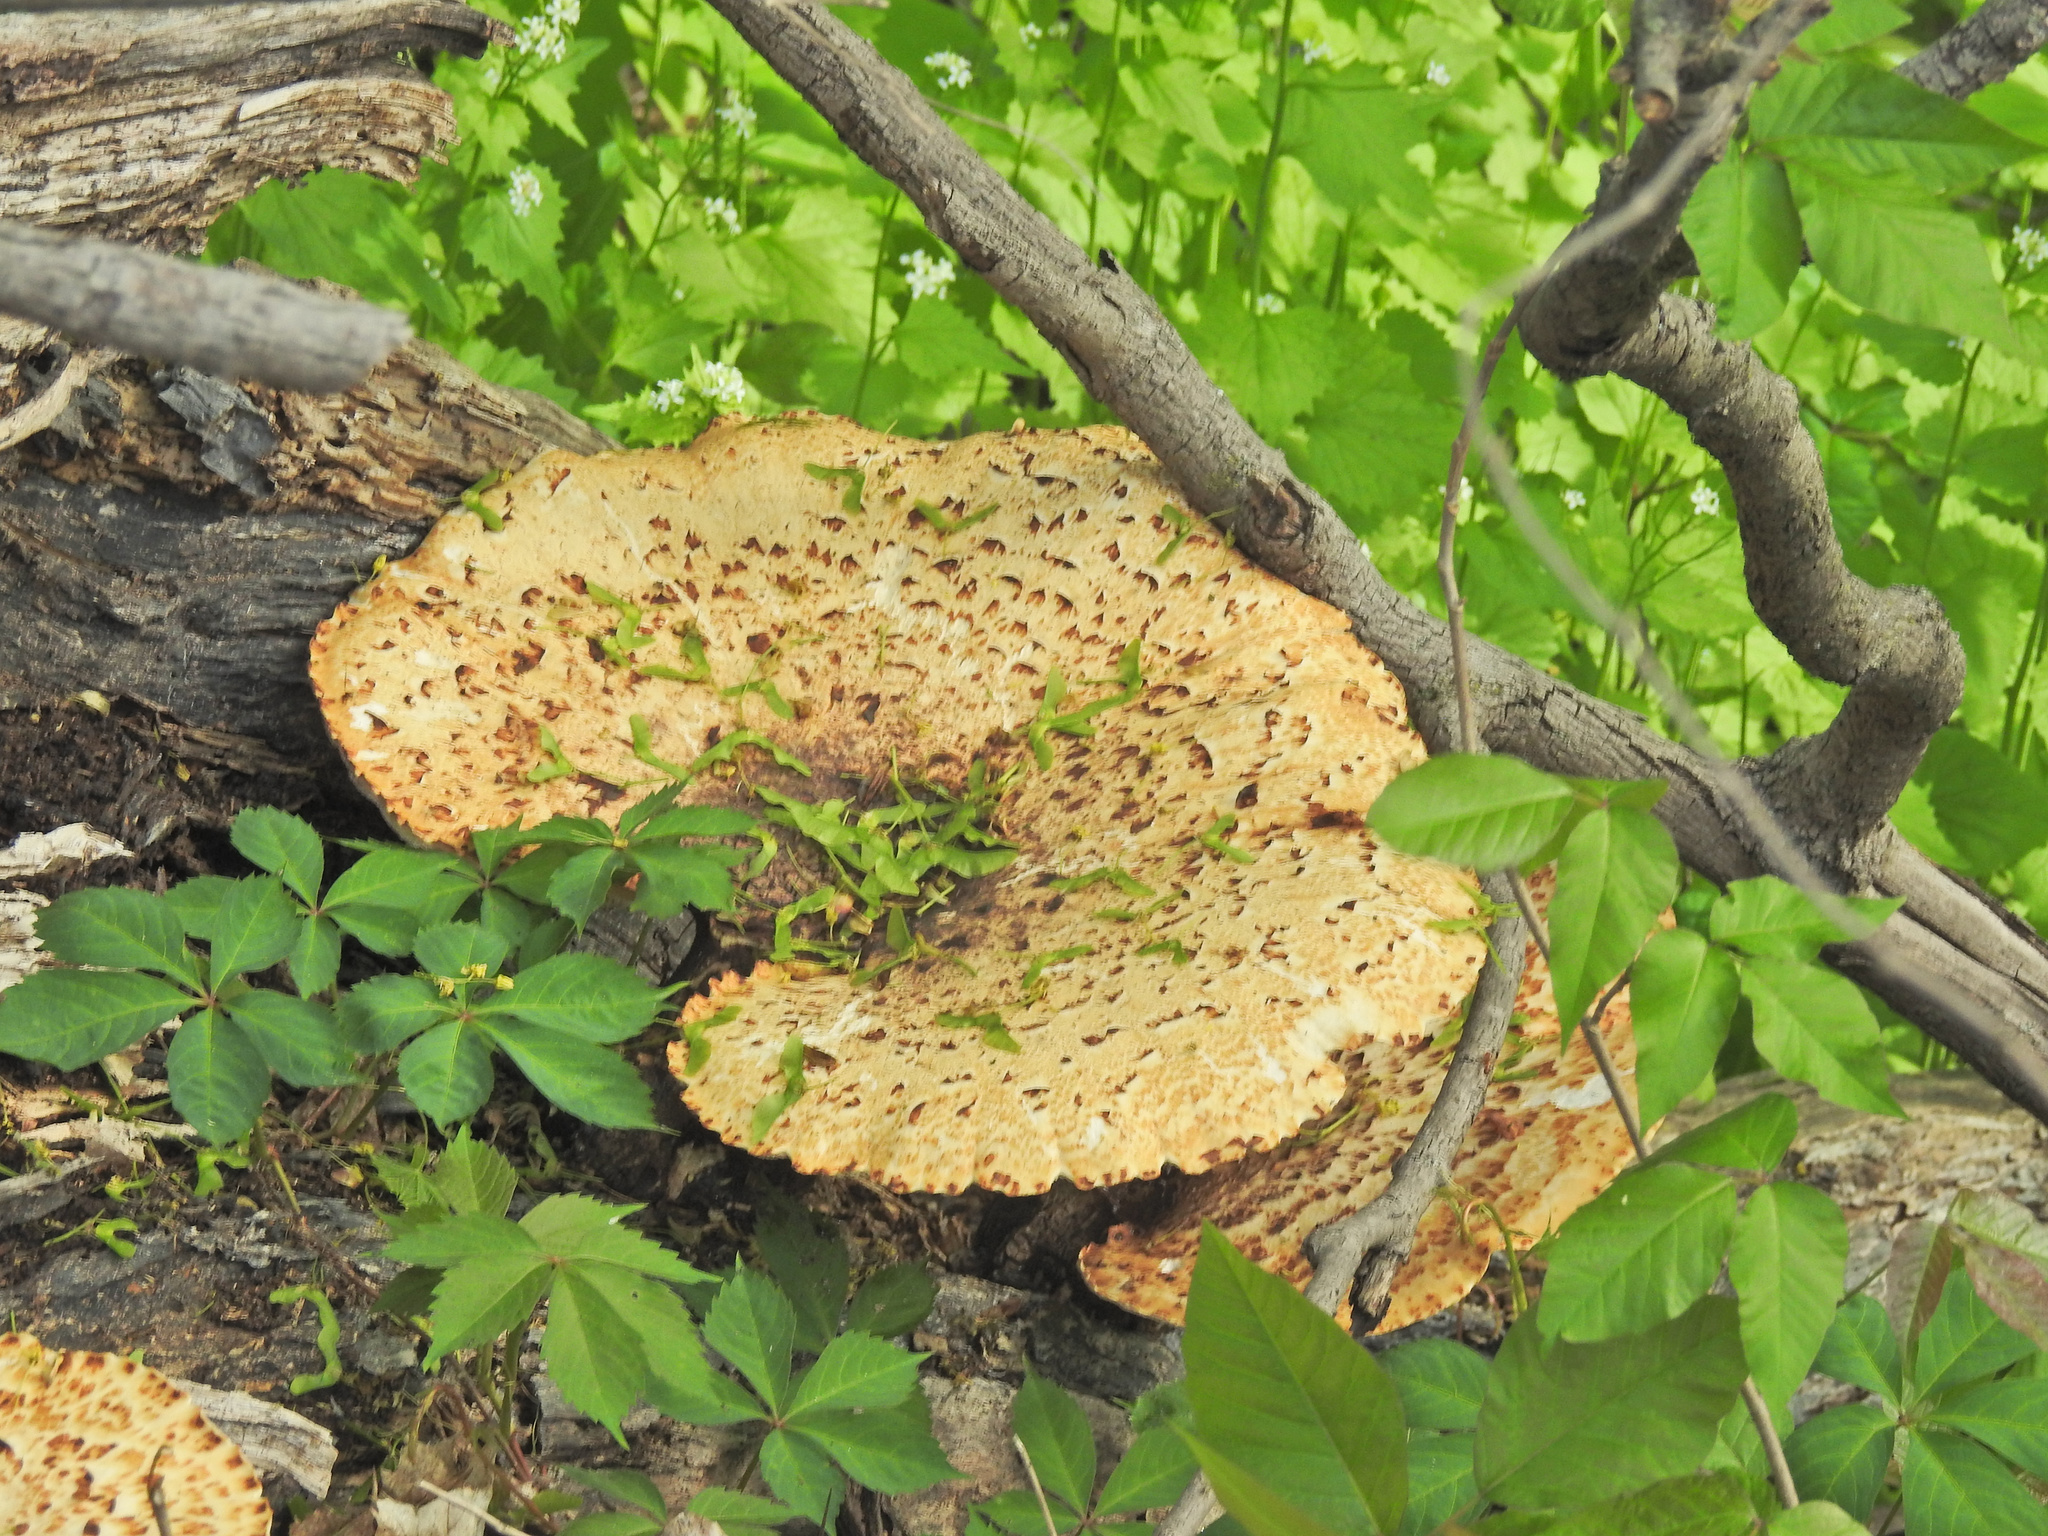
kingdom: Fungi
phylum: Basidiomycota
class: Agaricomycetes
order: Polyporales
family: Polyporaceae
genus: Cerioporus
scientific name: Cerioporus squamosus
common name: Dryad's saddle
